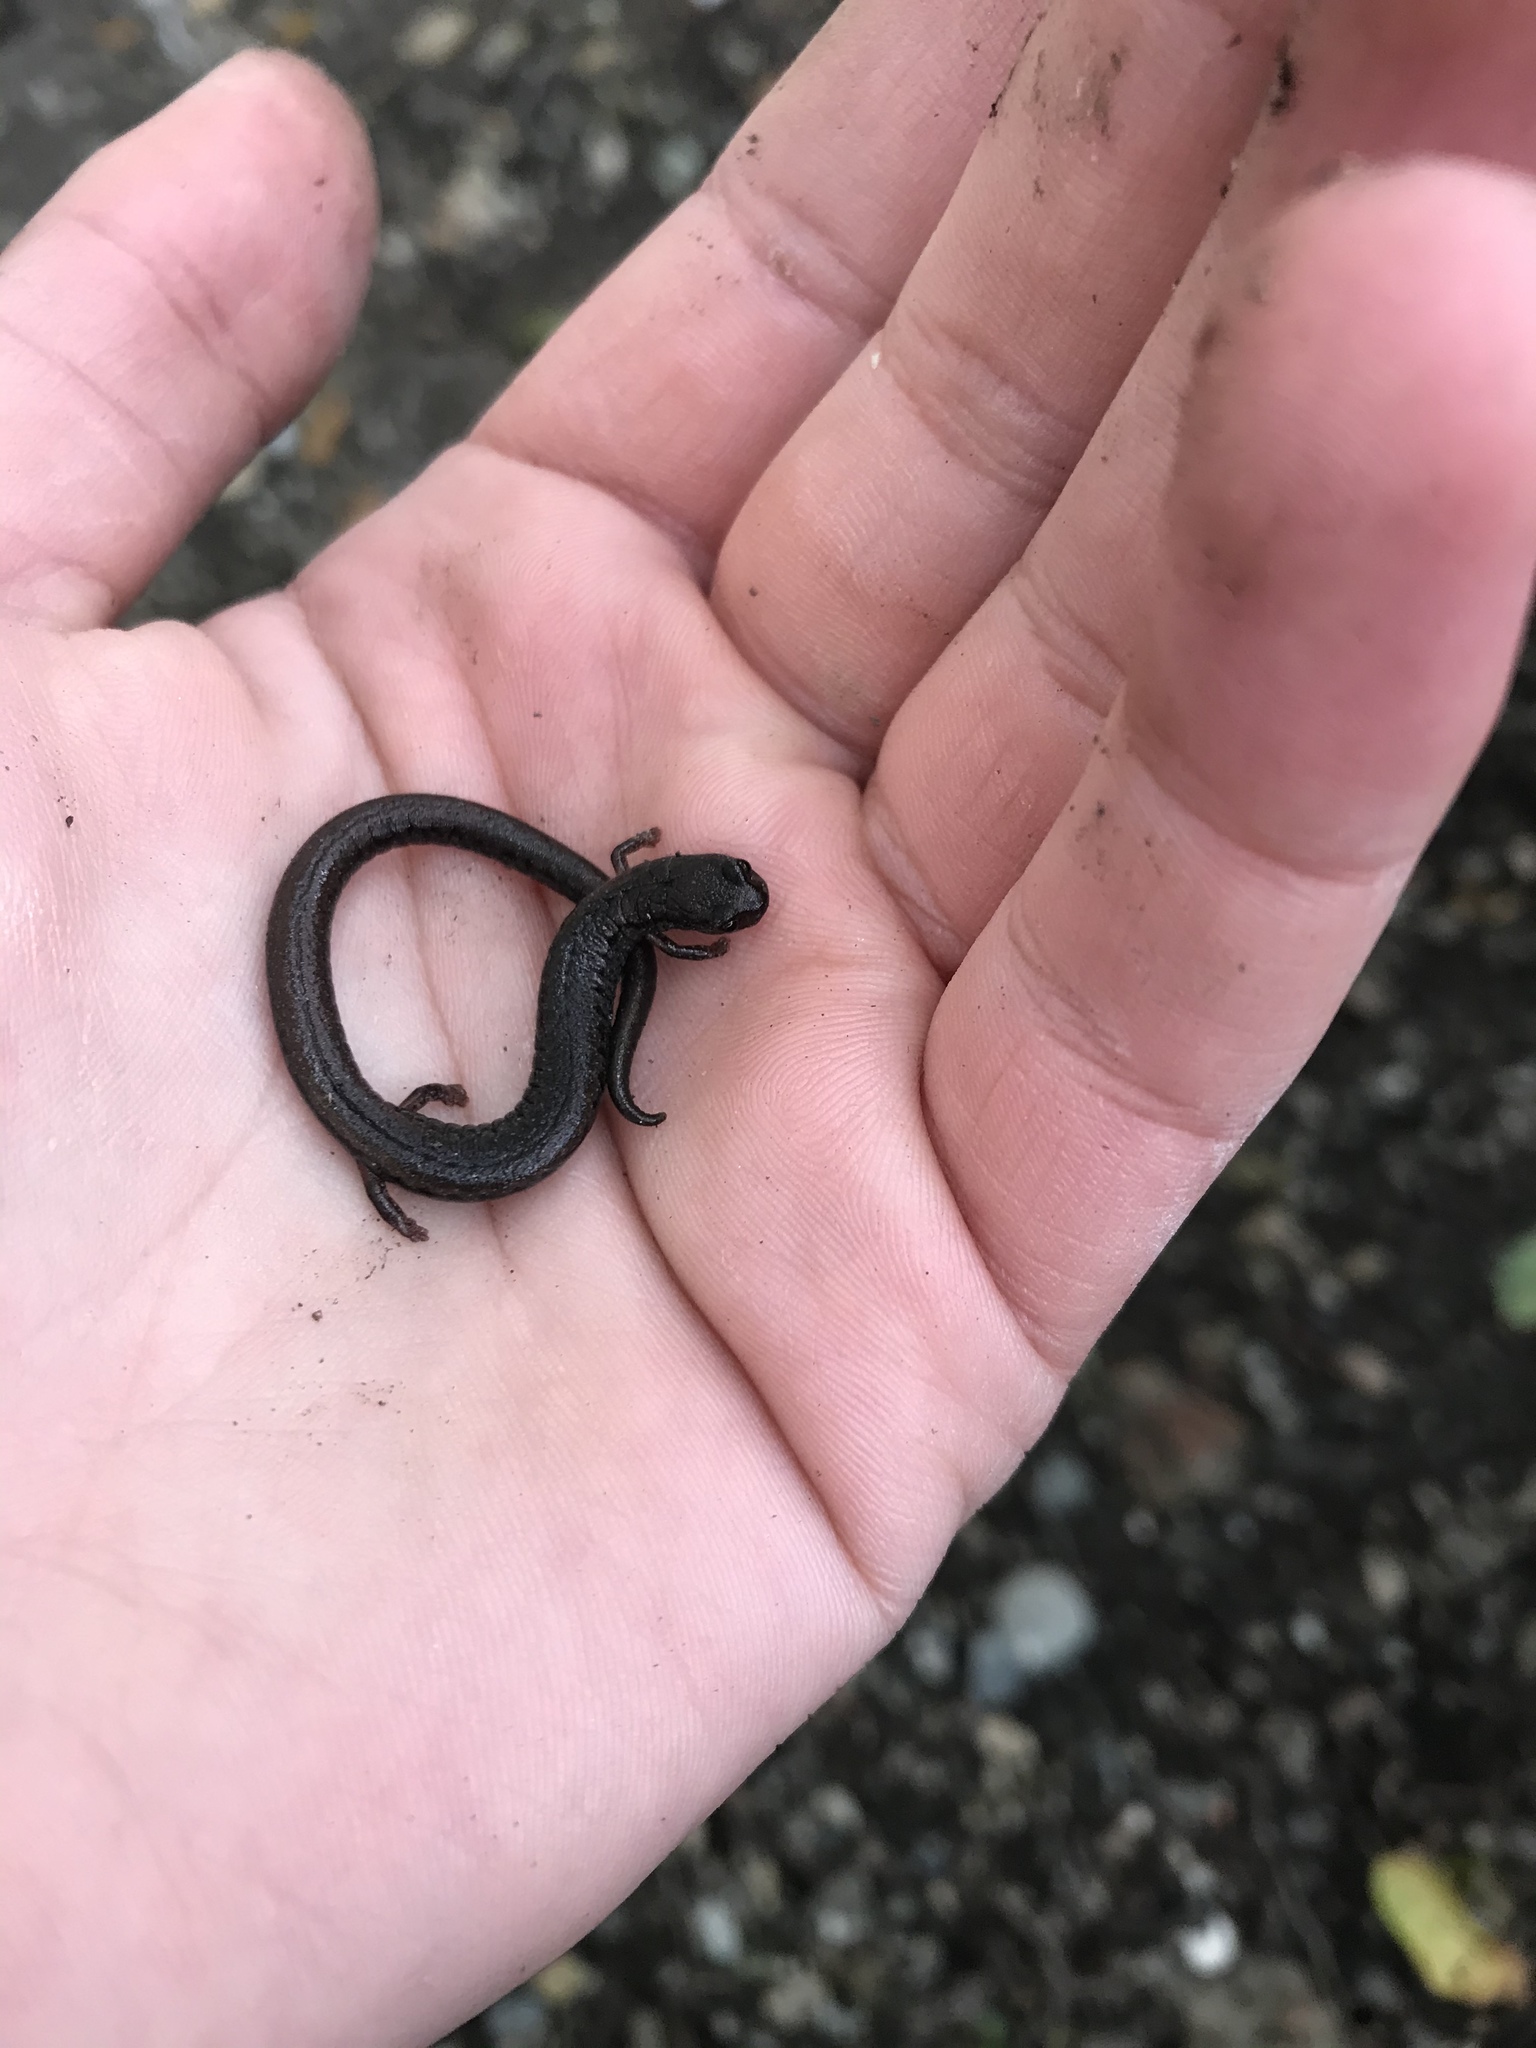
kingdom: Animalia
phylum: Chordata
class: Amphibia
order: Caudata
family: Plethodontidae
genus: Batrachoseps
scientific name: Batrachoseps attenuatus
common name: California slender salamander
